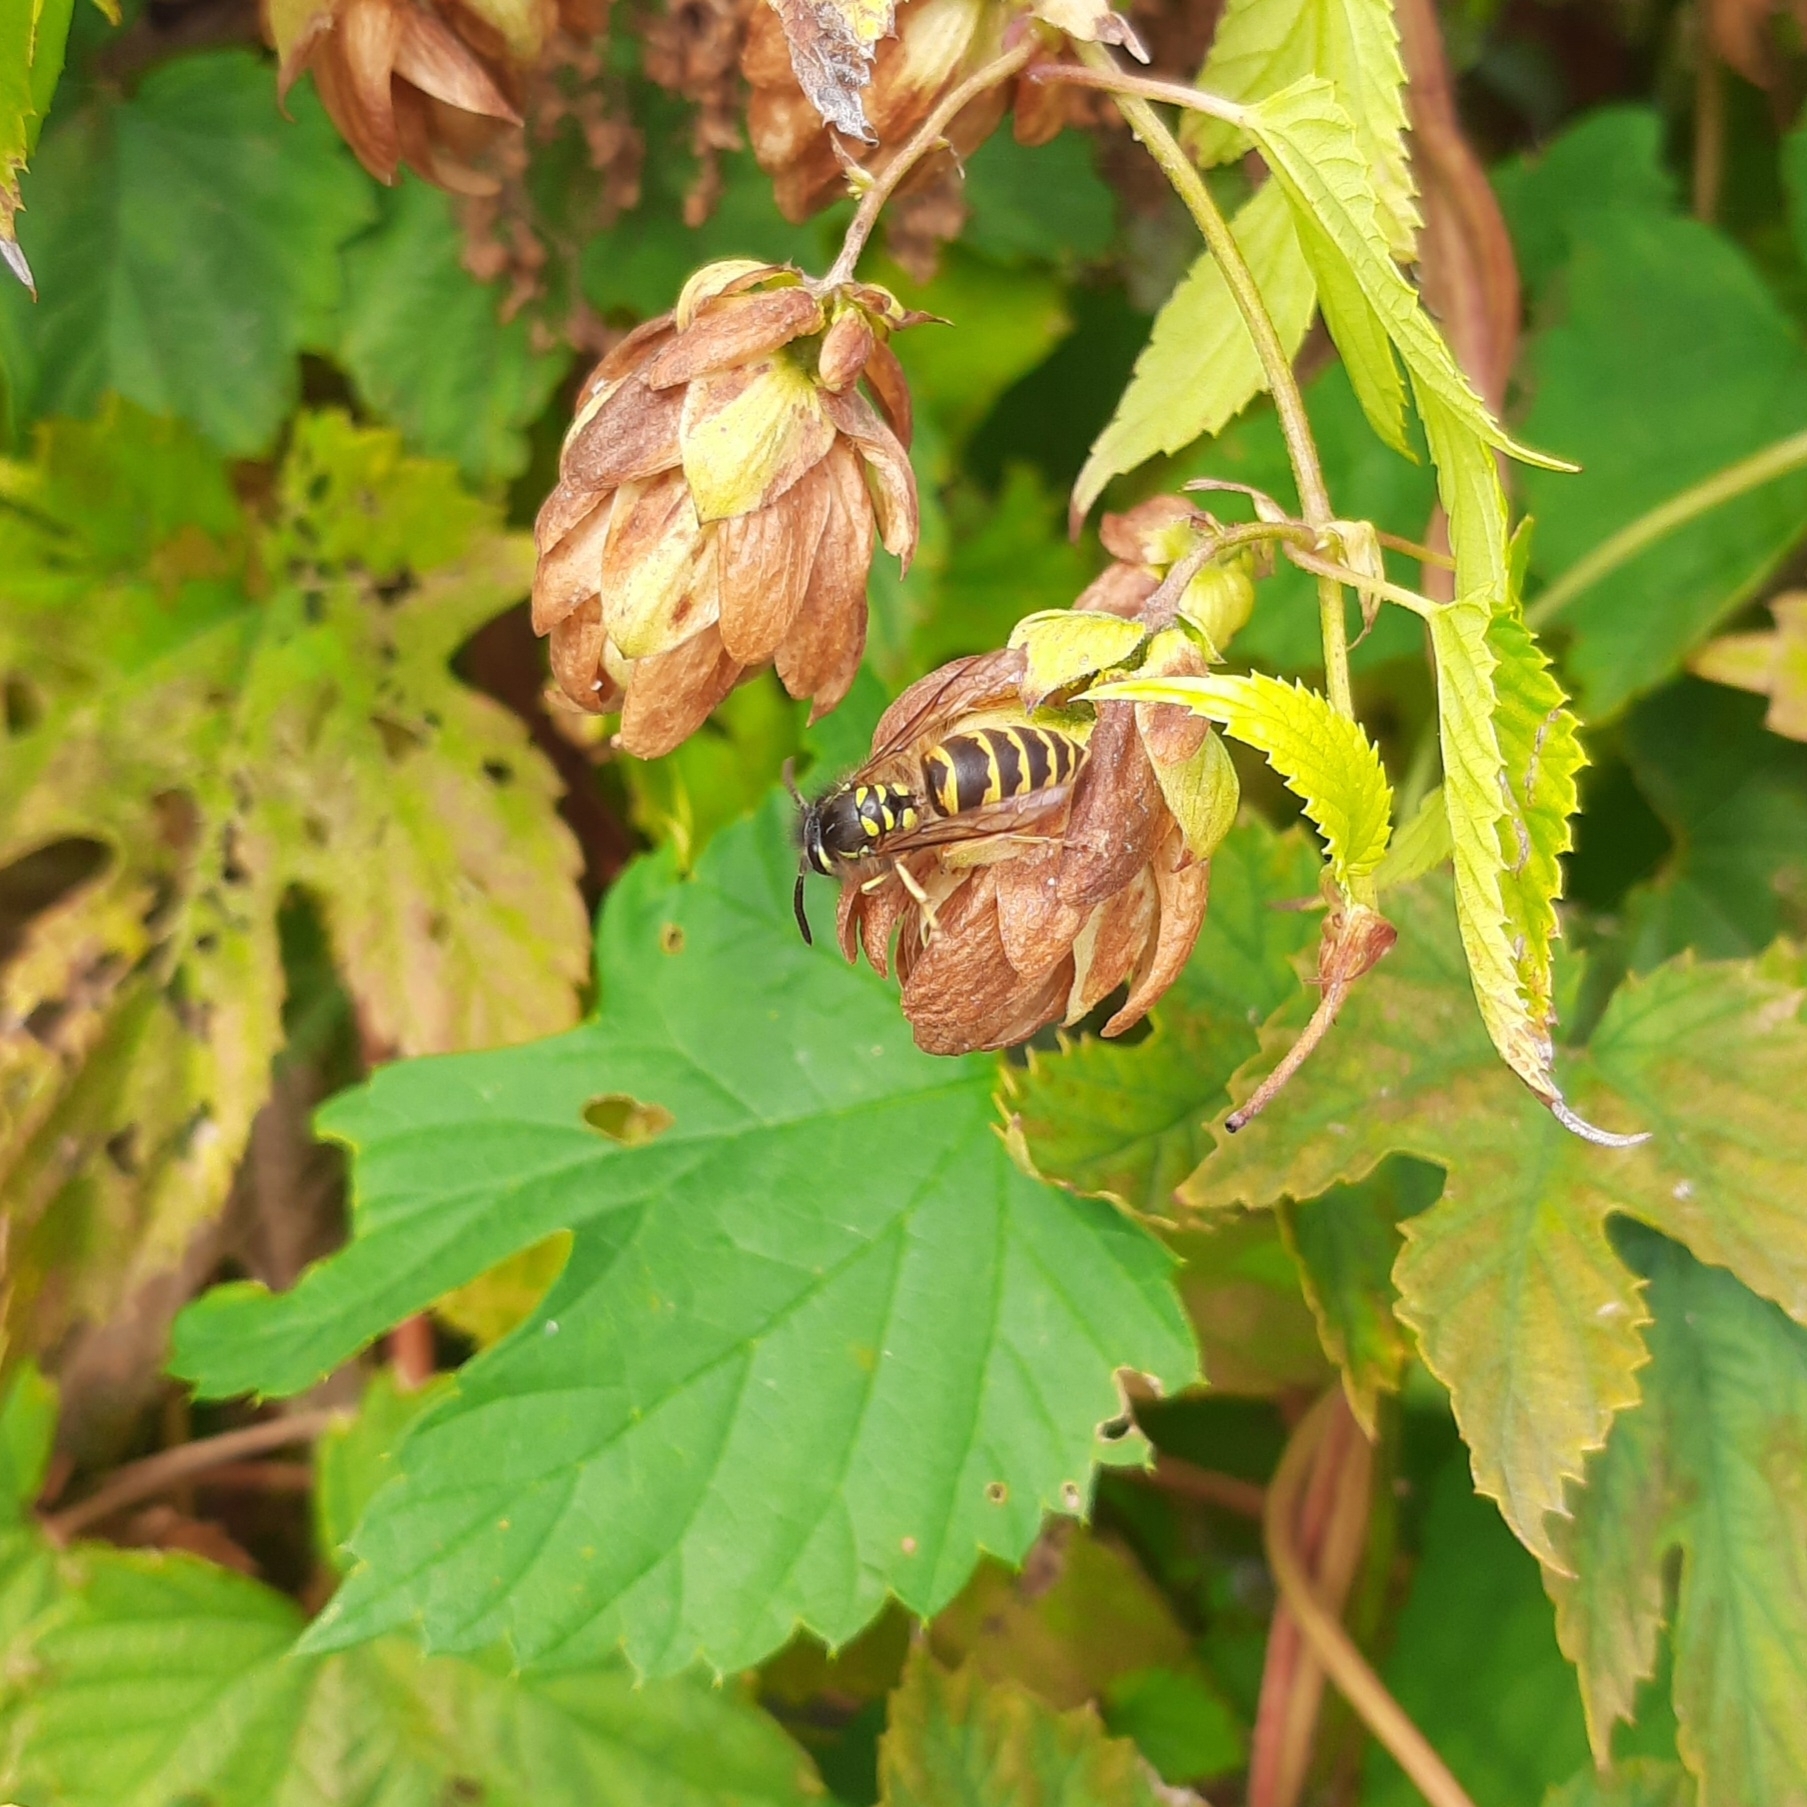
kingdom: Animalia
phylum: Arthropoda
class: Insecta
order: Hymenoptera
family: Vespidae
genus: Vespula
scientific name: Vespula vulgaris
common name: Common wasp
